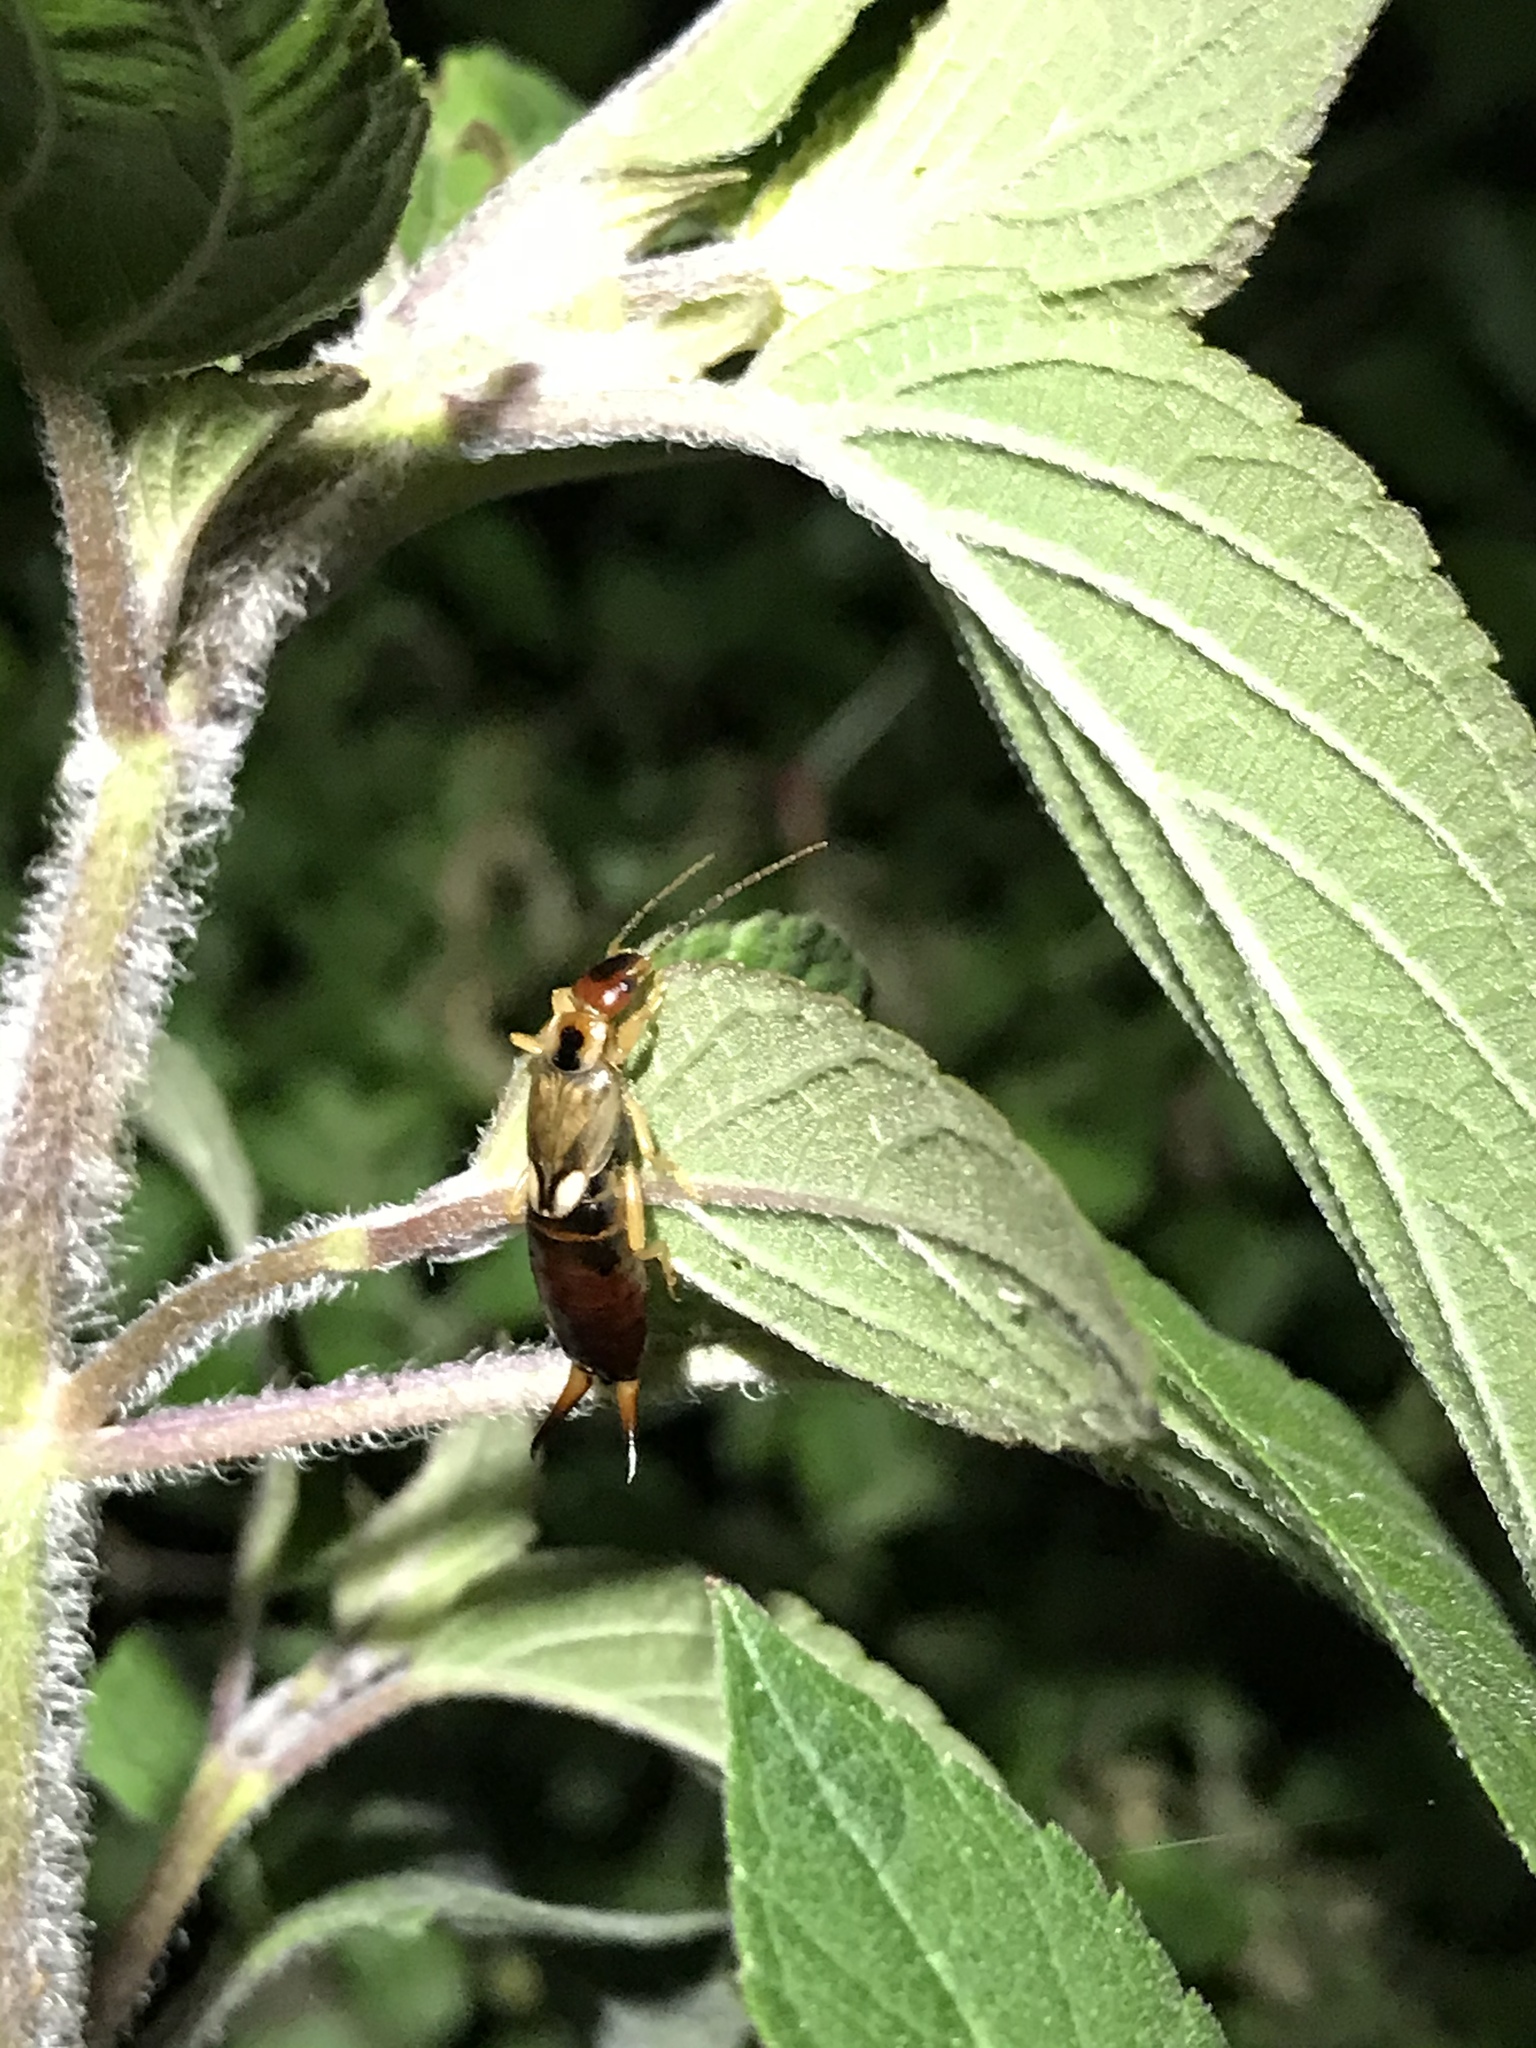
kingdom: Animalia
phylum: Arthropoda
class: Insecta
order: Dermaptera
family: Forficulidae
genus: Forficula
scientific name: Forficula
